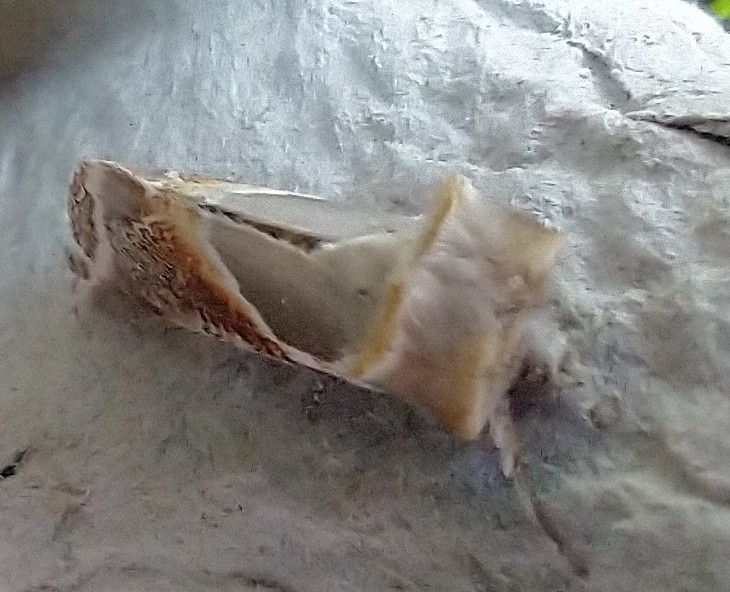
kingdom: Animalia
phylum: Arthropoda
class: Insecta
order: Lepidoptera
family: Drepanidae
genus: Habrosyne
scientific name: Habrosyne pyritoides
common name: Buff arches
